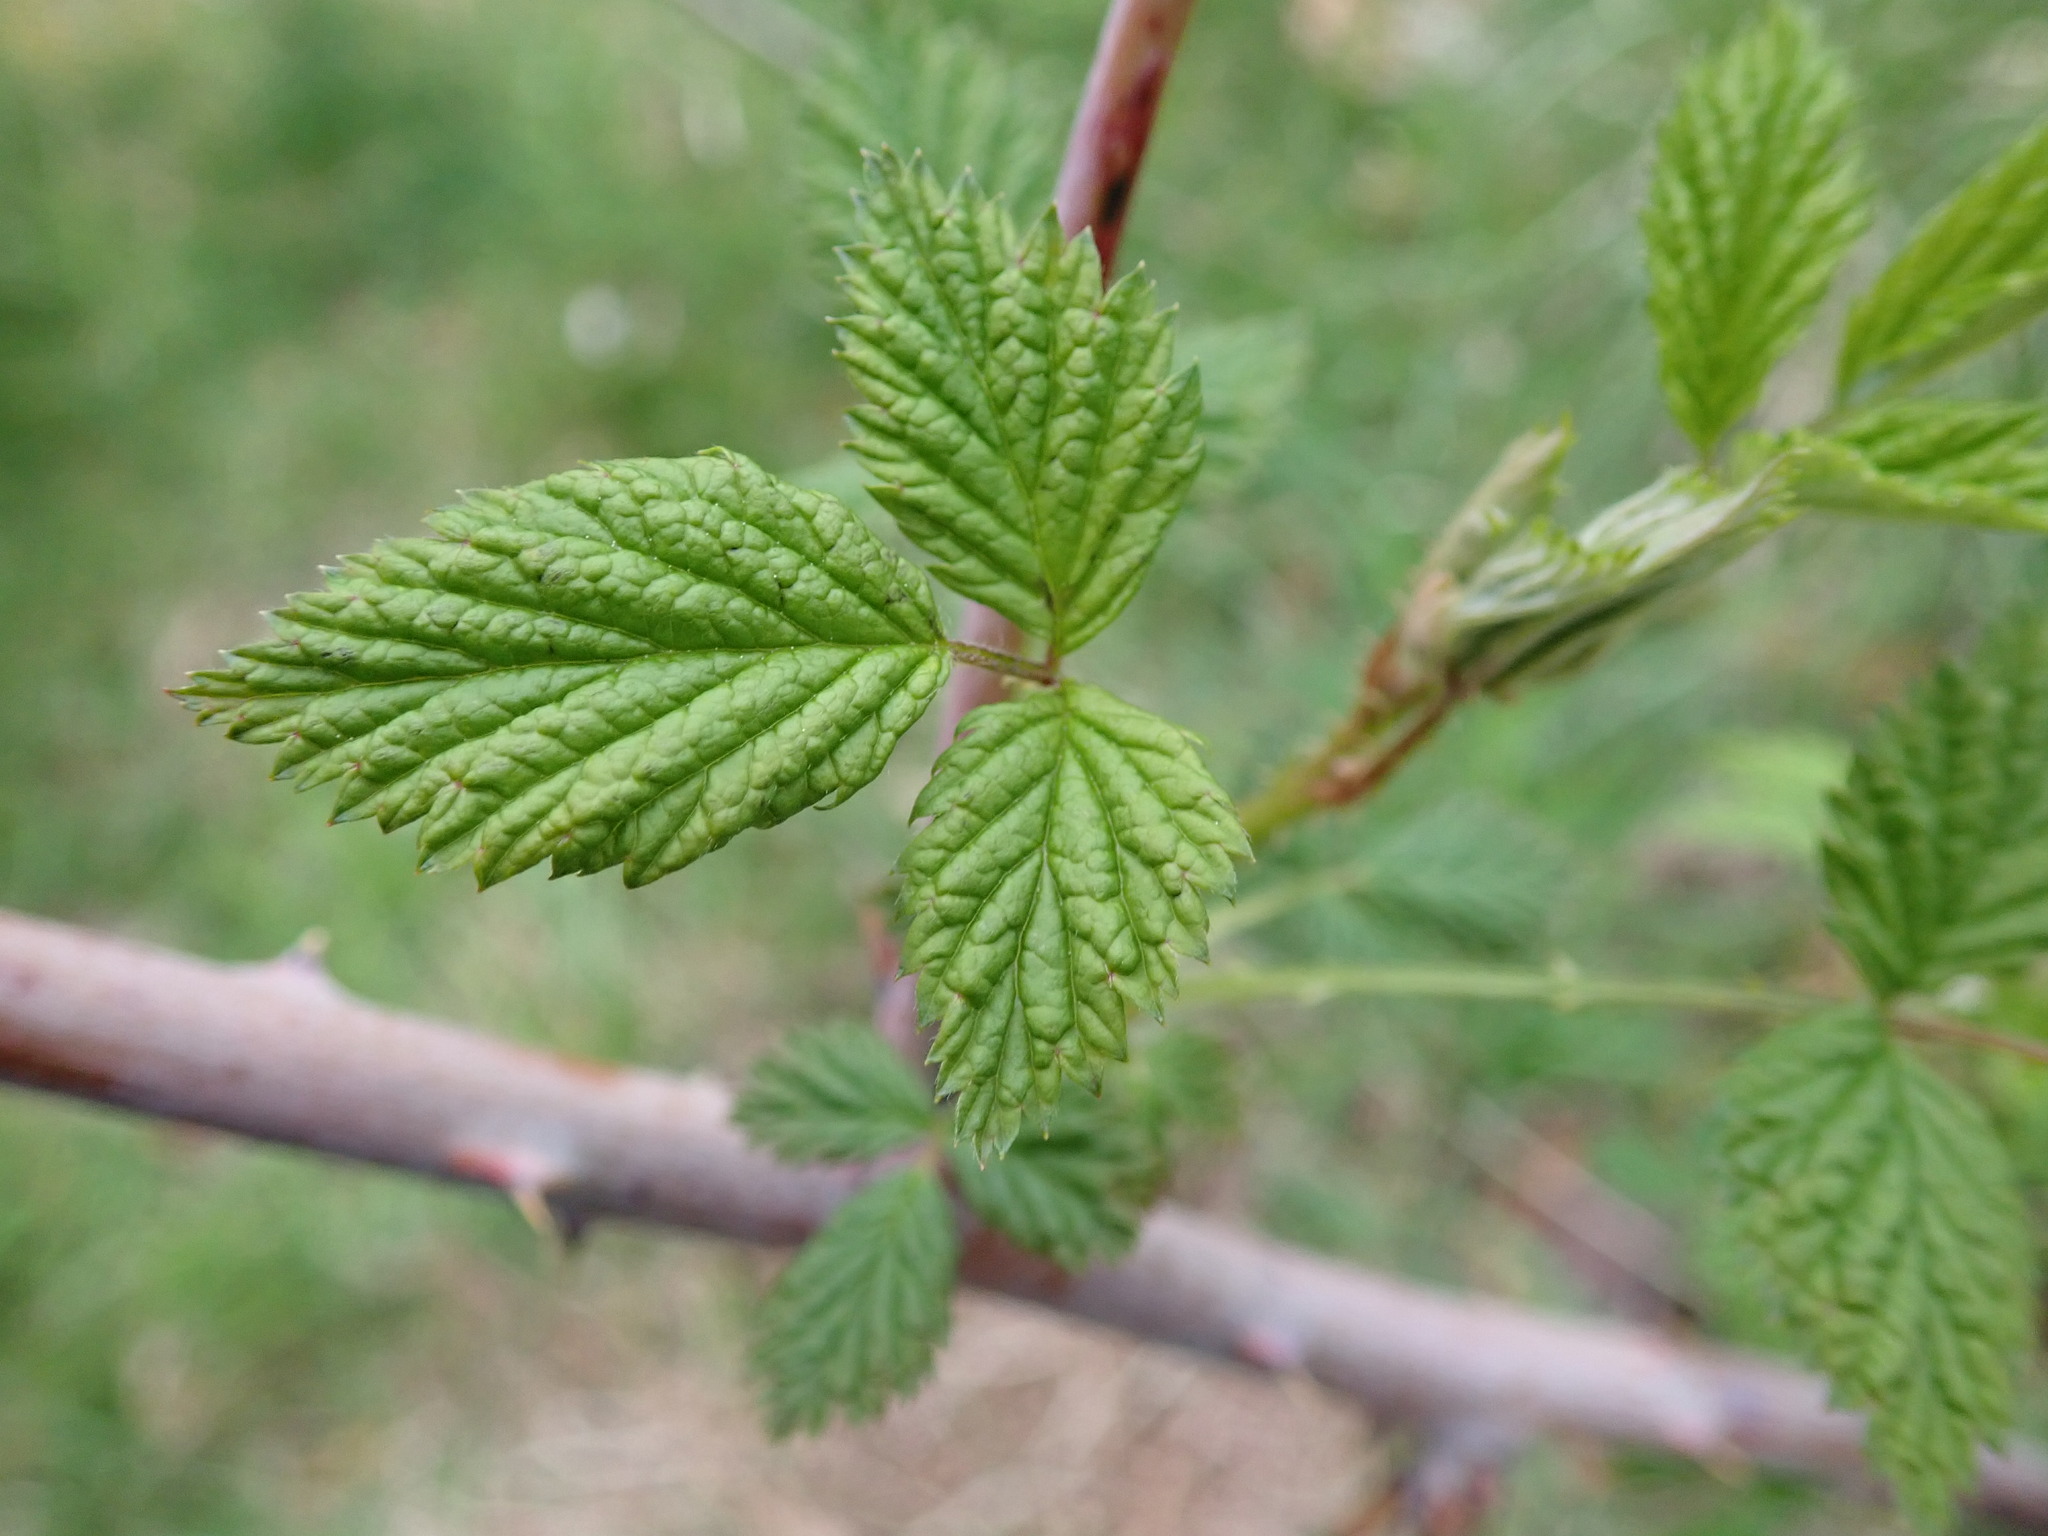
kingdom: Plantae
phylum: Tracheophyta
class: Magnoliopsida
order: Rosales
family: Rosaceae
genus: Rubus
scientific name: Rubus leucodermis
